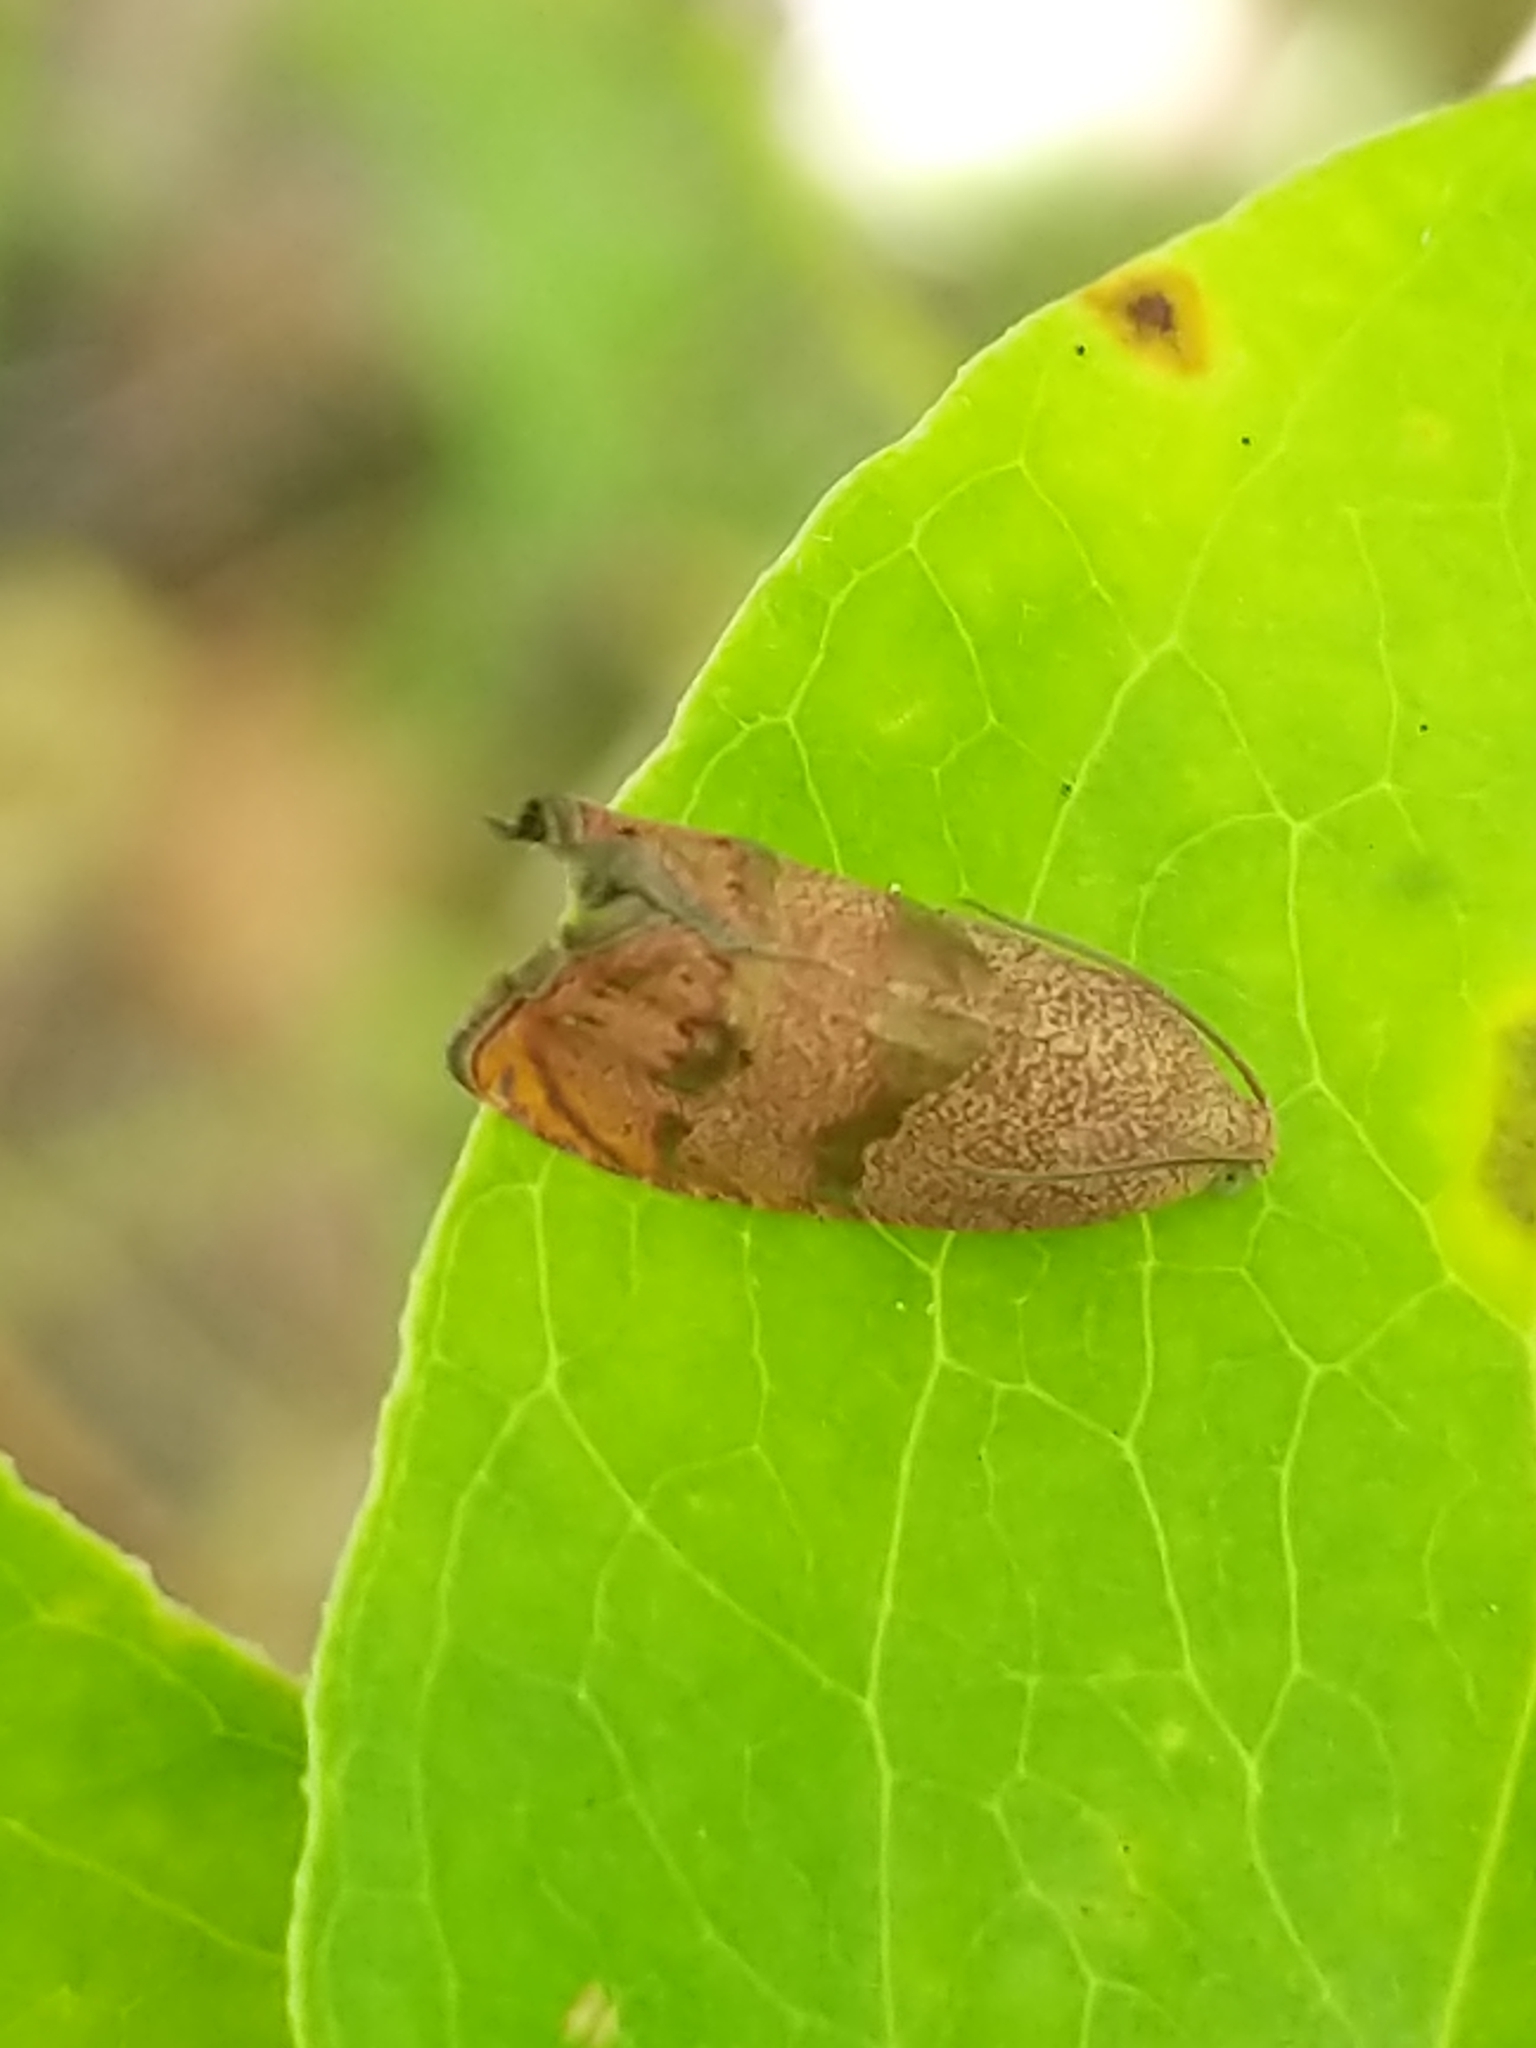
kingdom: Animalia
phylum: Arthropoda
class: Insecta
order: Lepidoptera
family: Tortricidae
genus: Cydia
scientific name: Cydia latiferreana
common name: Filbertworm moth
